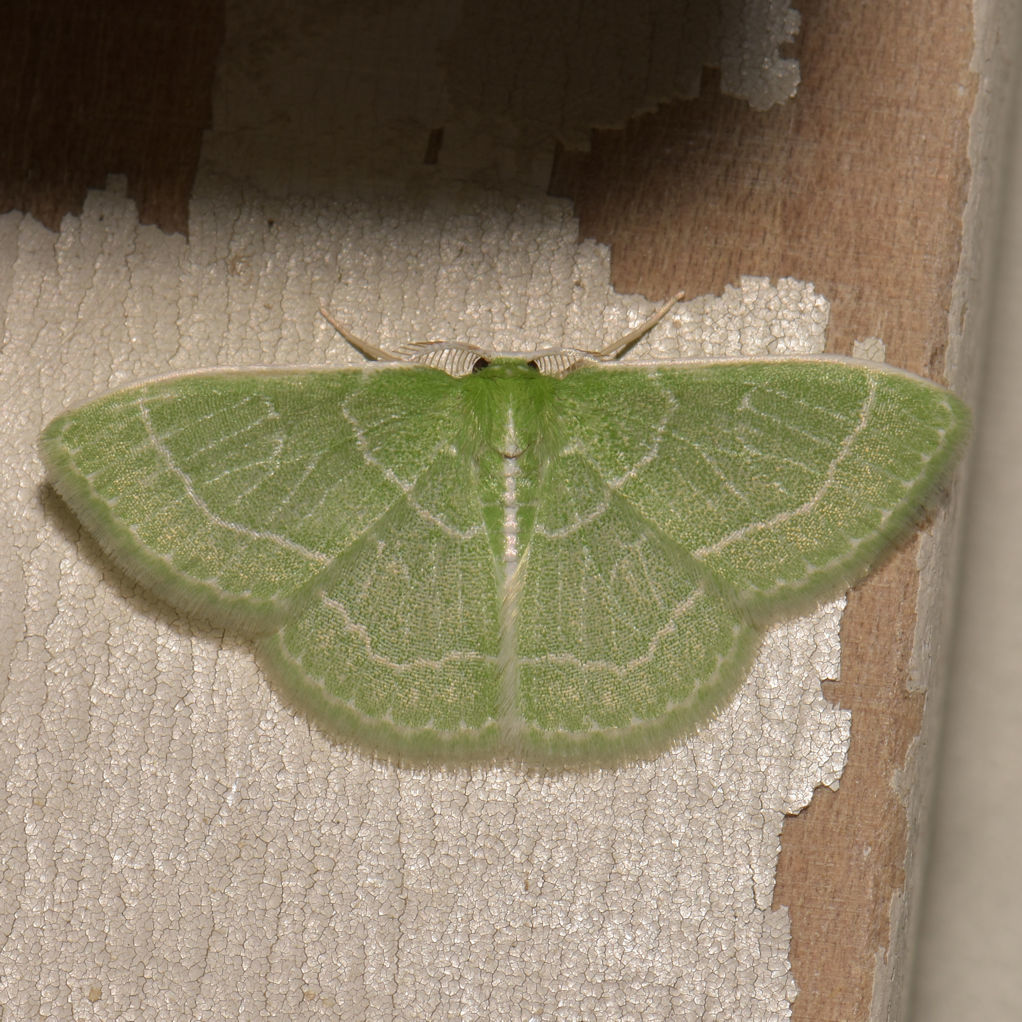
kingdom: Animalia
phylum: Arthropoda
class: Insecta
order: Lepidoptera
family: Geometridae
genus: Synchlora
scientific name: Synchlora aerata
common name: Wavy-lined emerald
